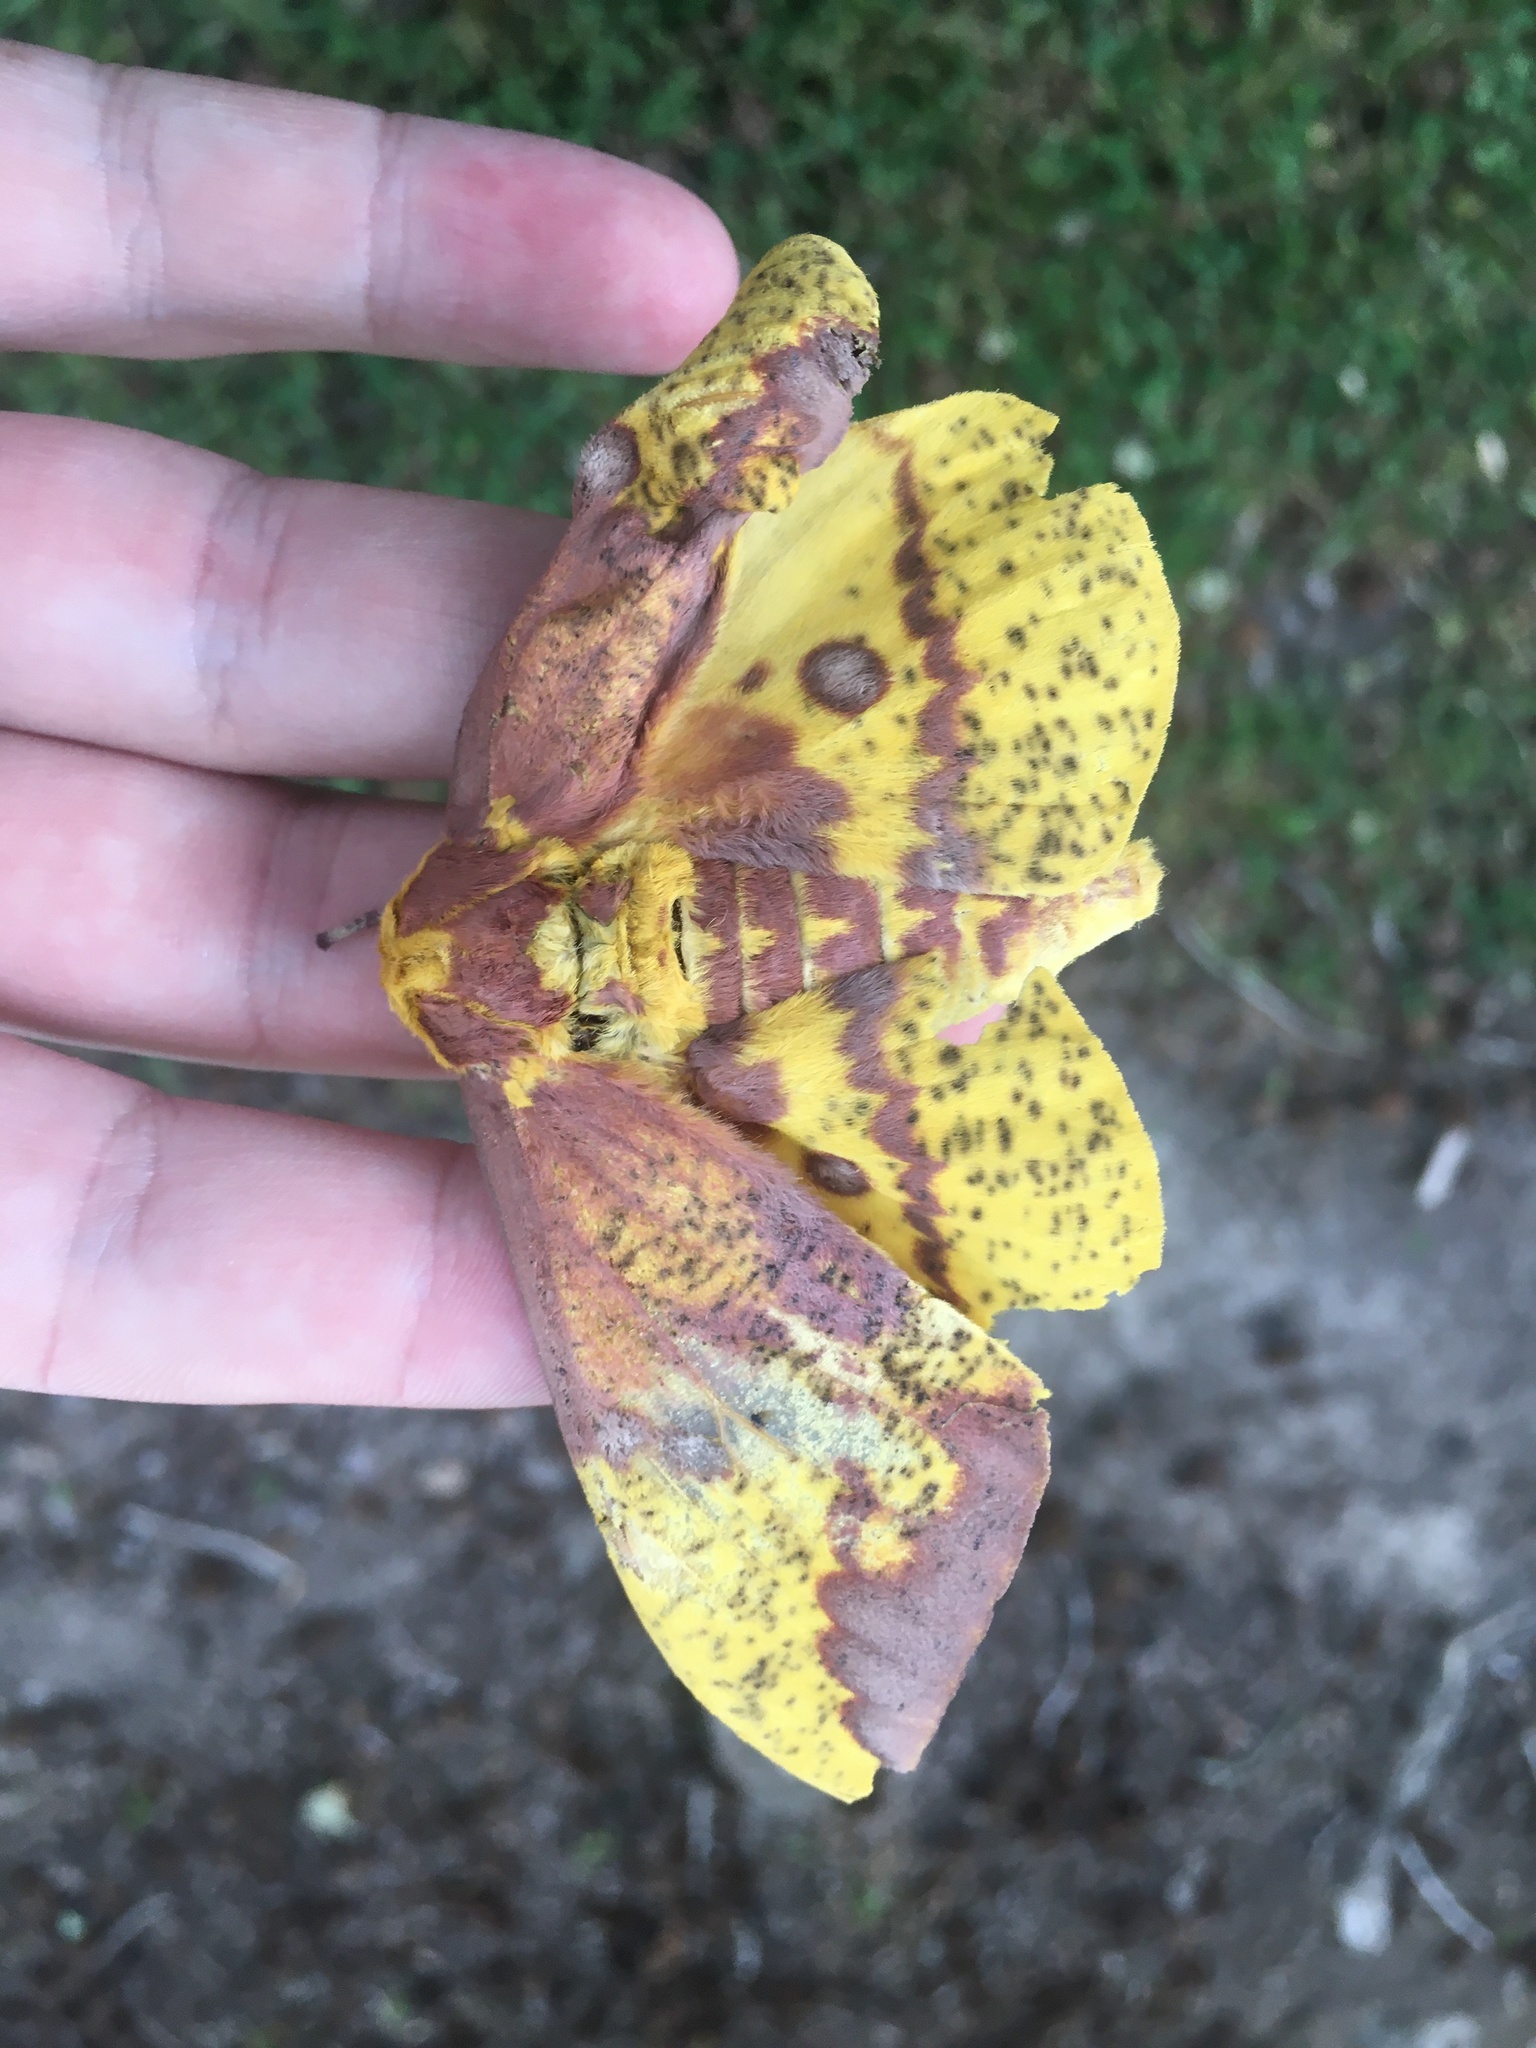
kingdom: Animalia
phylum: Arthropoda
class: Insecta
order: Lepidoptera
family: Saturniidae
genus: Eacles
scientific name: Eacles imperialis
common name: Imperial moth
